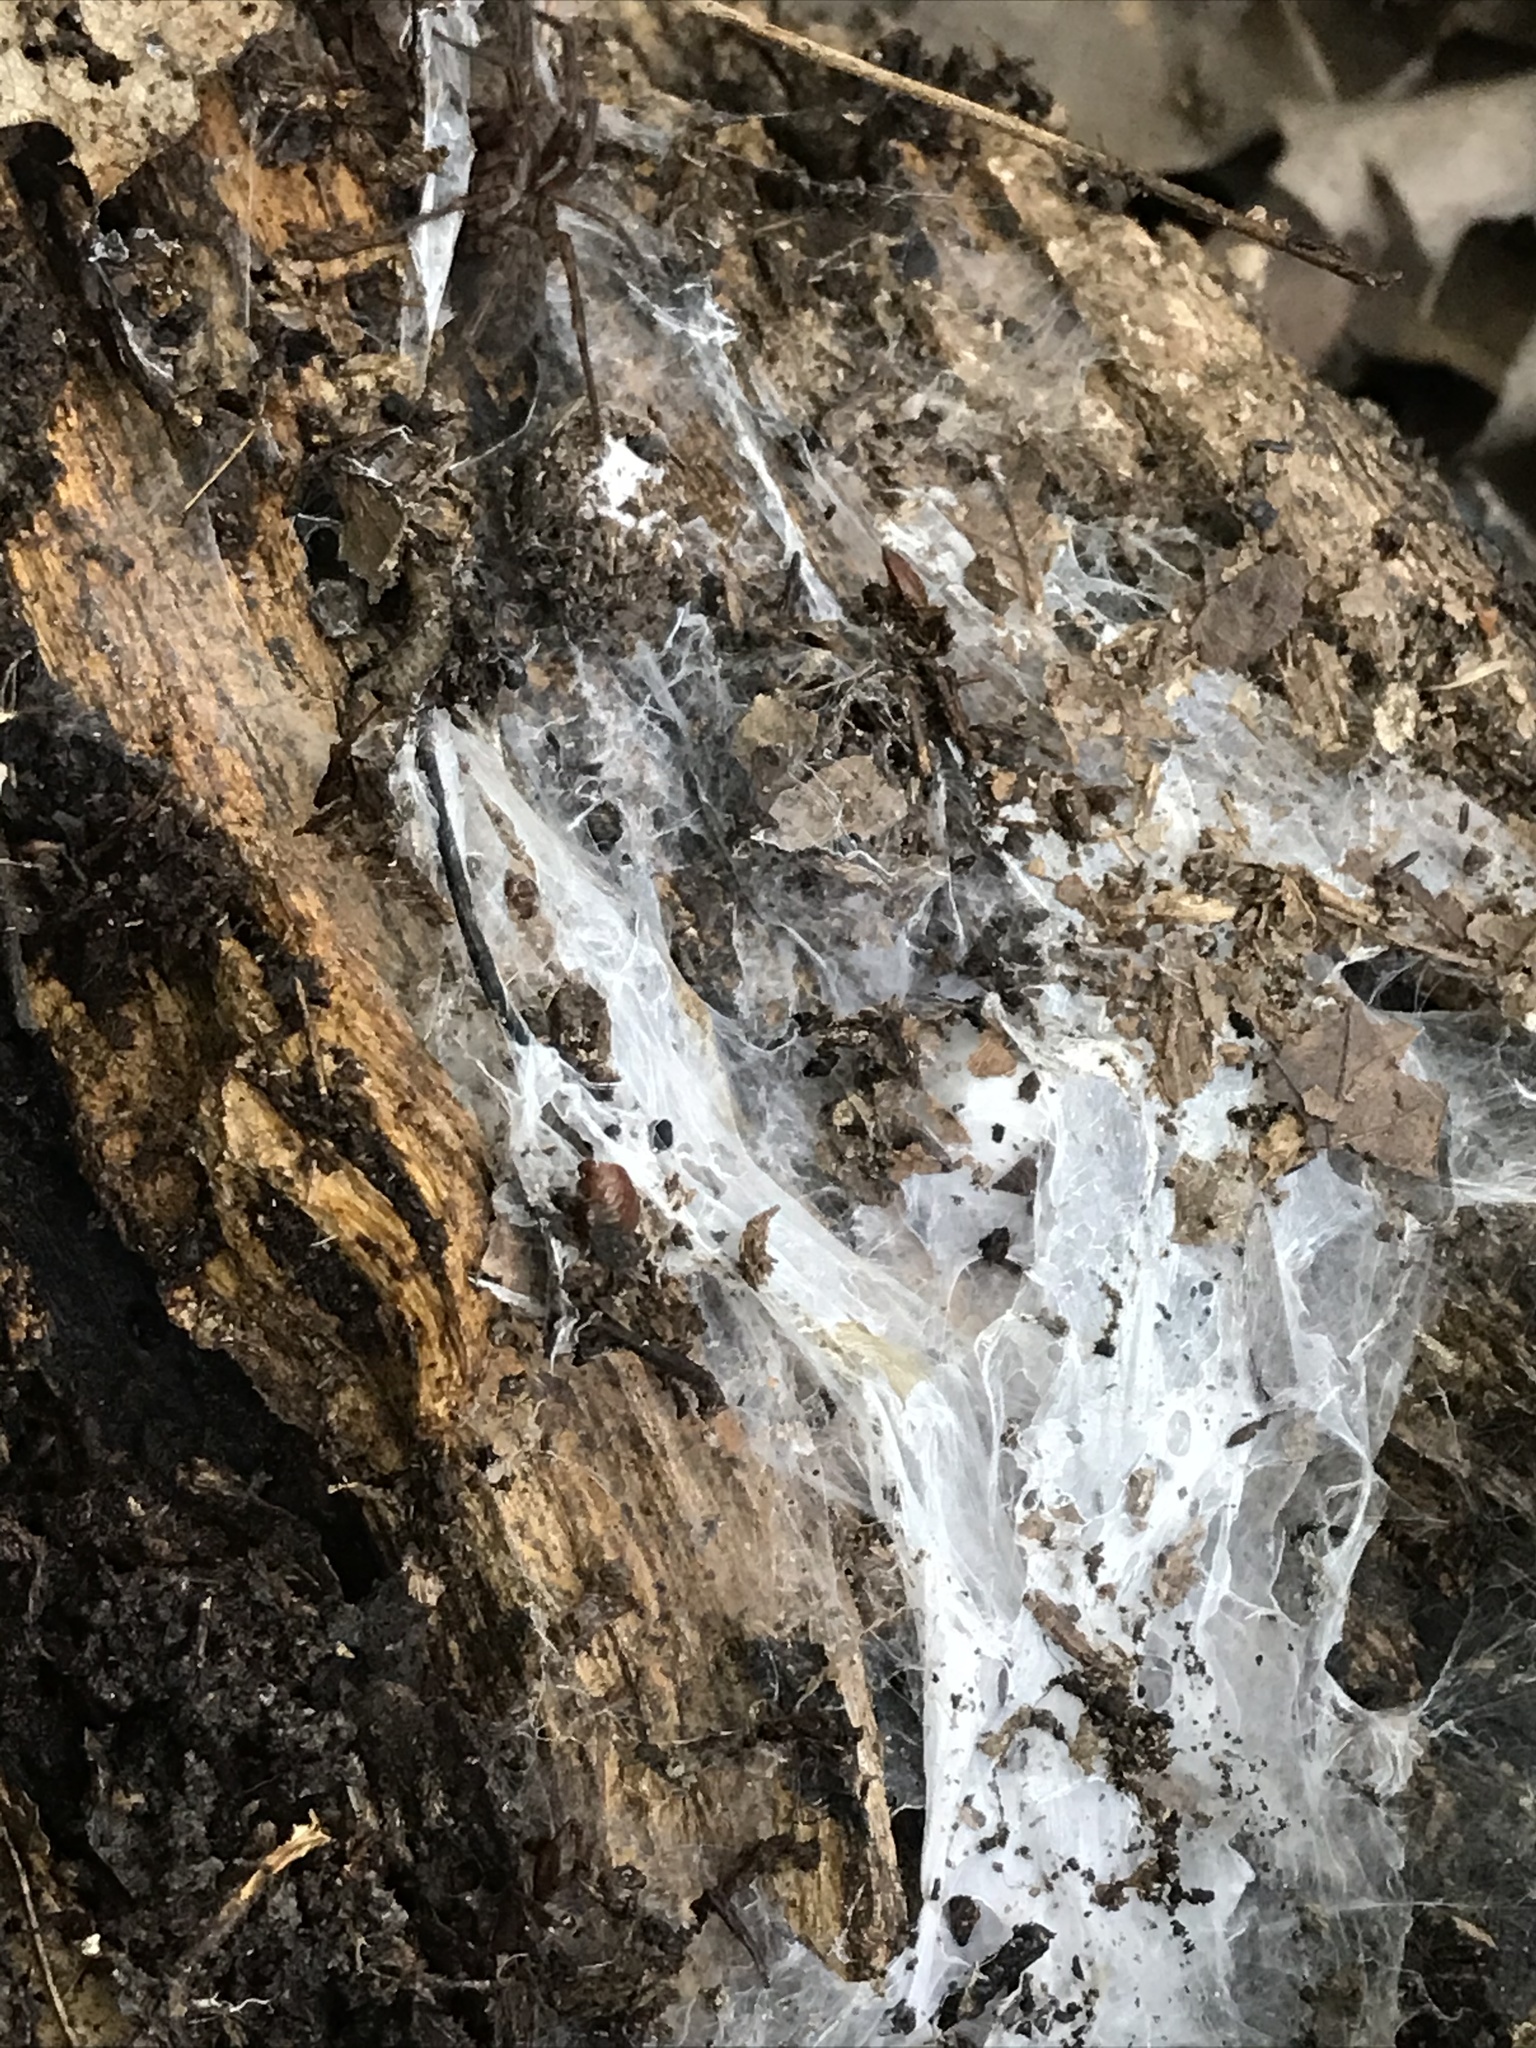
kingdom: Animalia
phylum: Arthropoda
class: Arachnida
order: Araneae
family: Agelenidae
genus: Coras
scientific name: Coras
